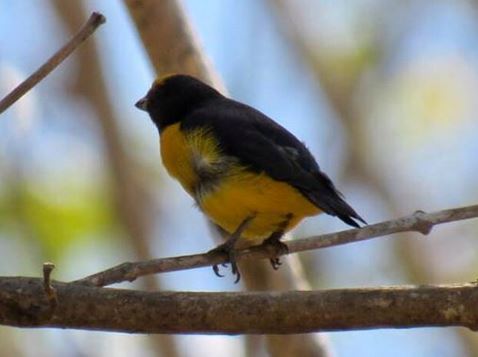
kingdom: Animalia
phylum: Chordata
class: Aves
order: Passeriformes
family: Fringillidae
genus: Euphonia
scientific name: Euphonia affinis
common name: Scrub euphonia
